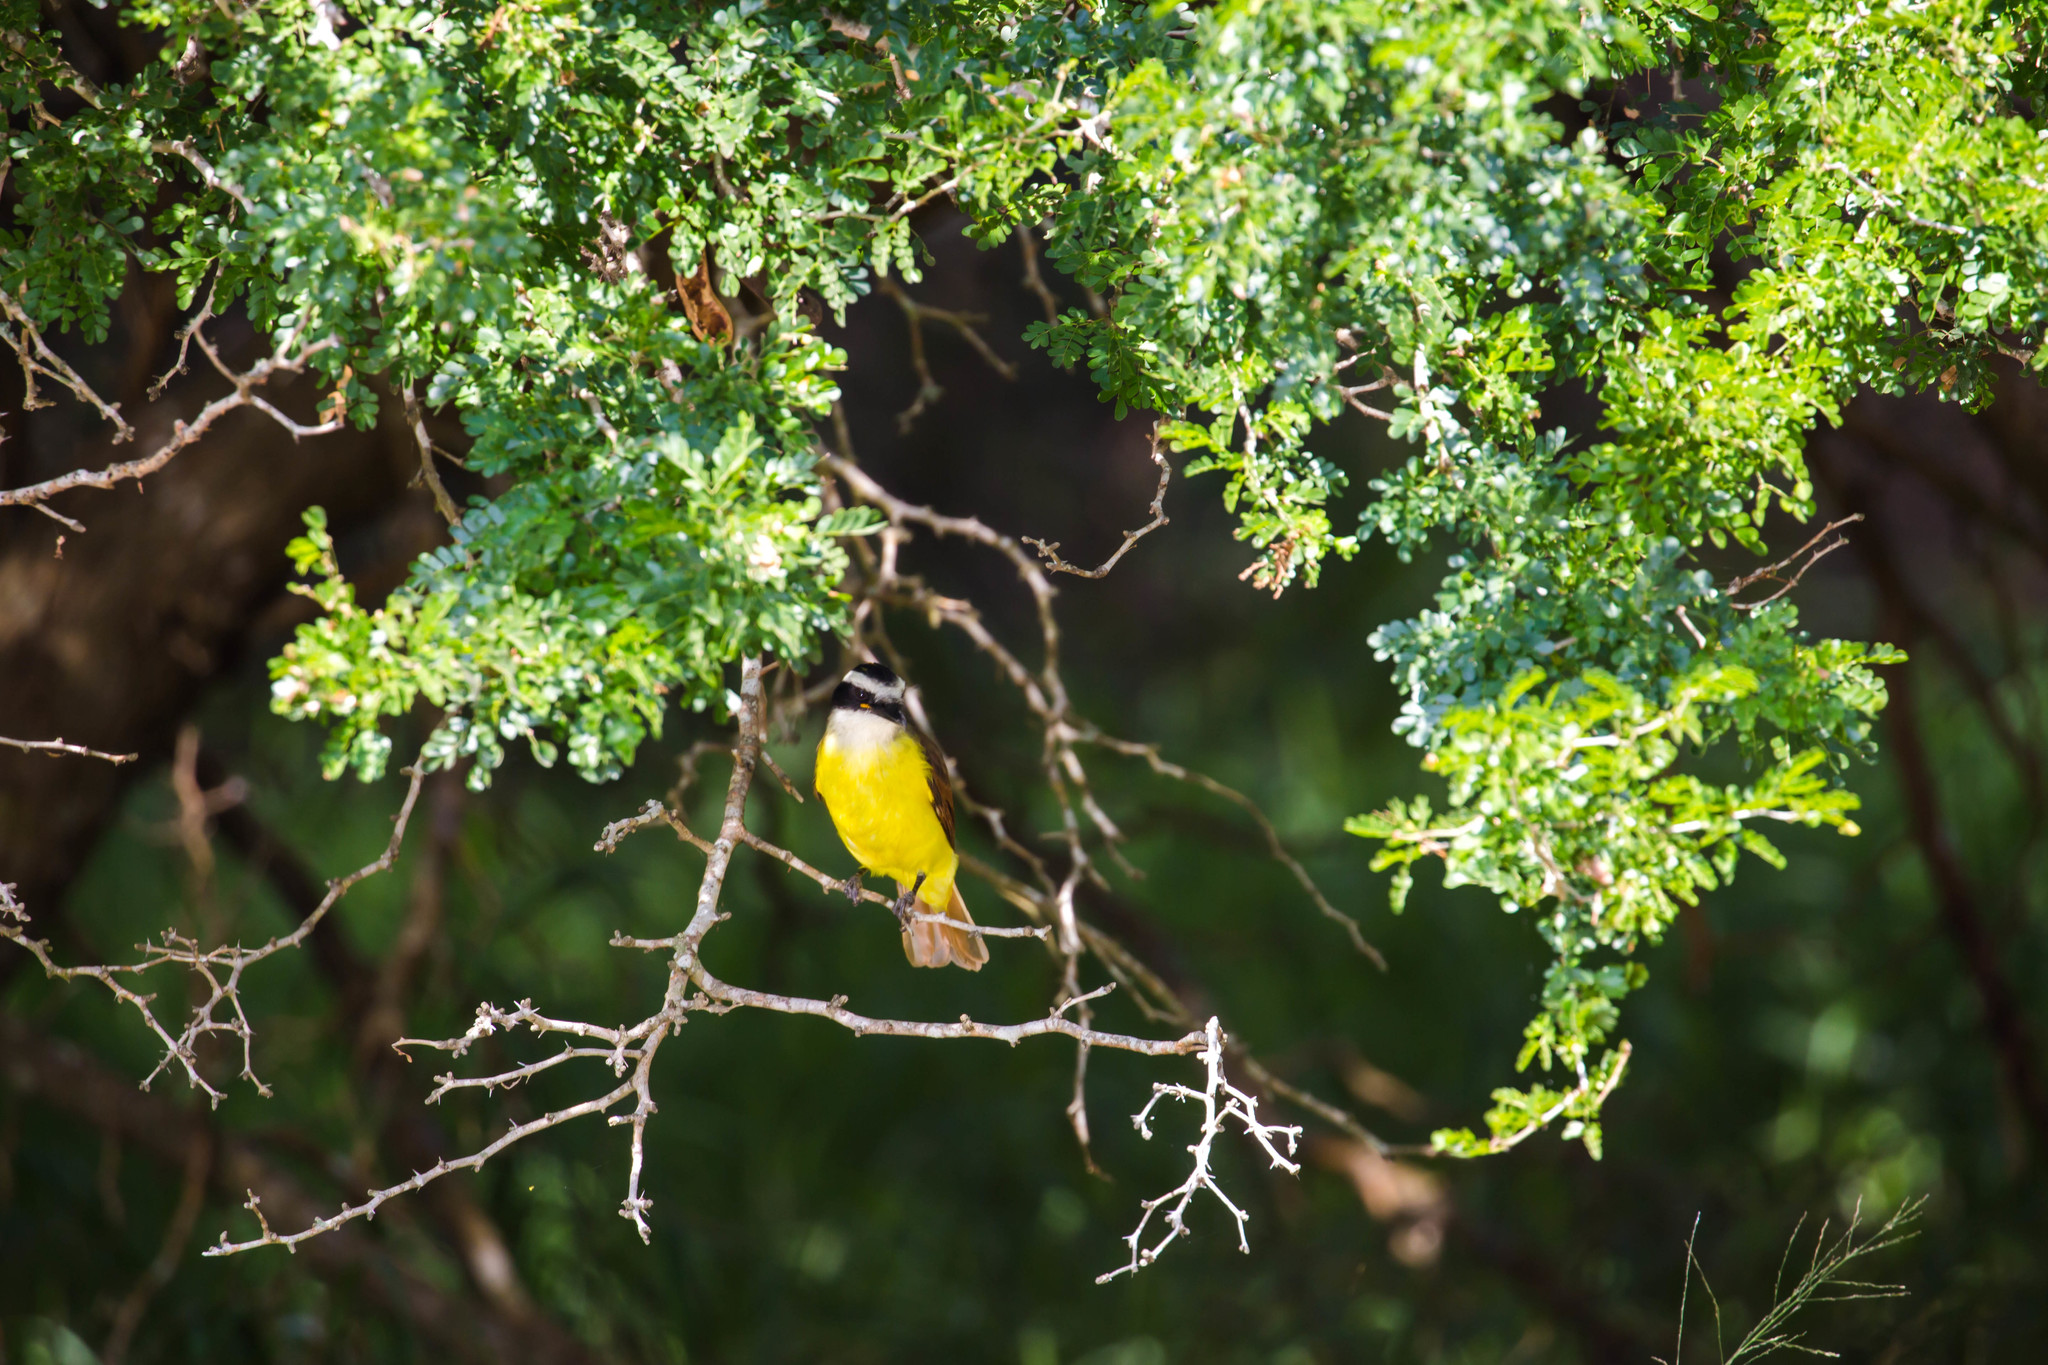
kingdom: Animalia
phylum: Chordata
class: Aves
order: Passeriformes
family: Tyrannidae
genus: Pitangus
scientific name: Pitangus sulphuratus
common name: Great kiskadee
